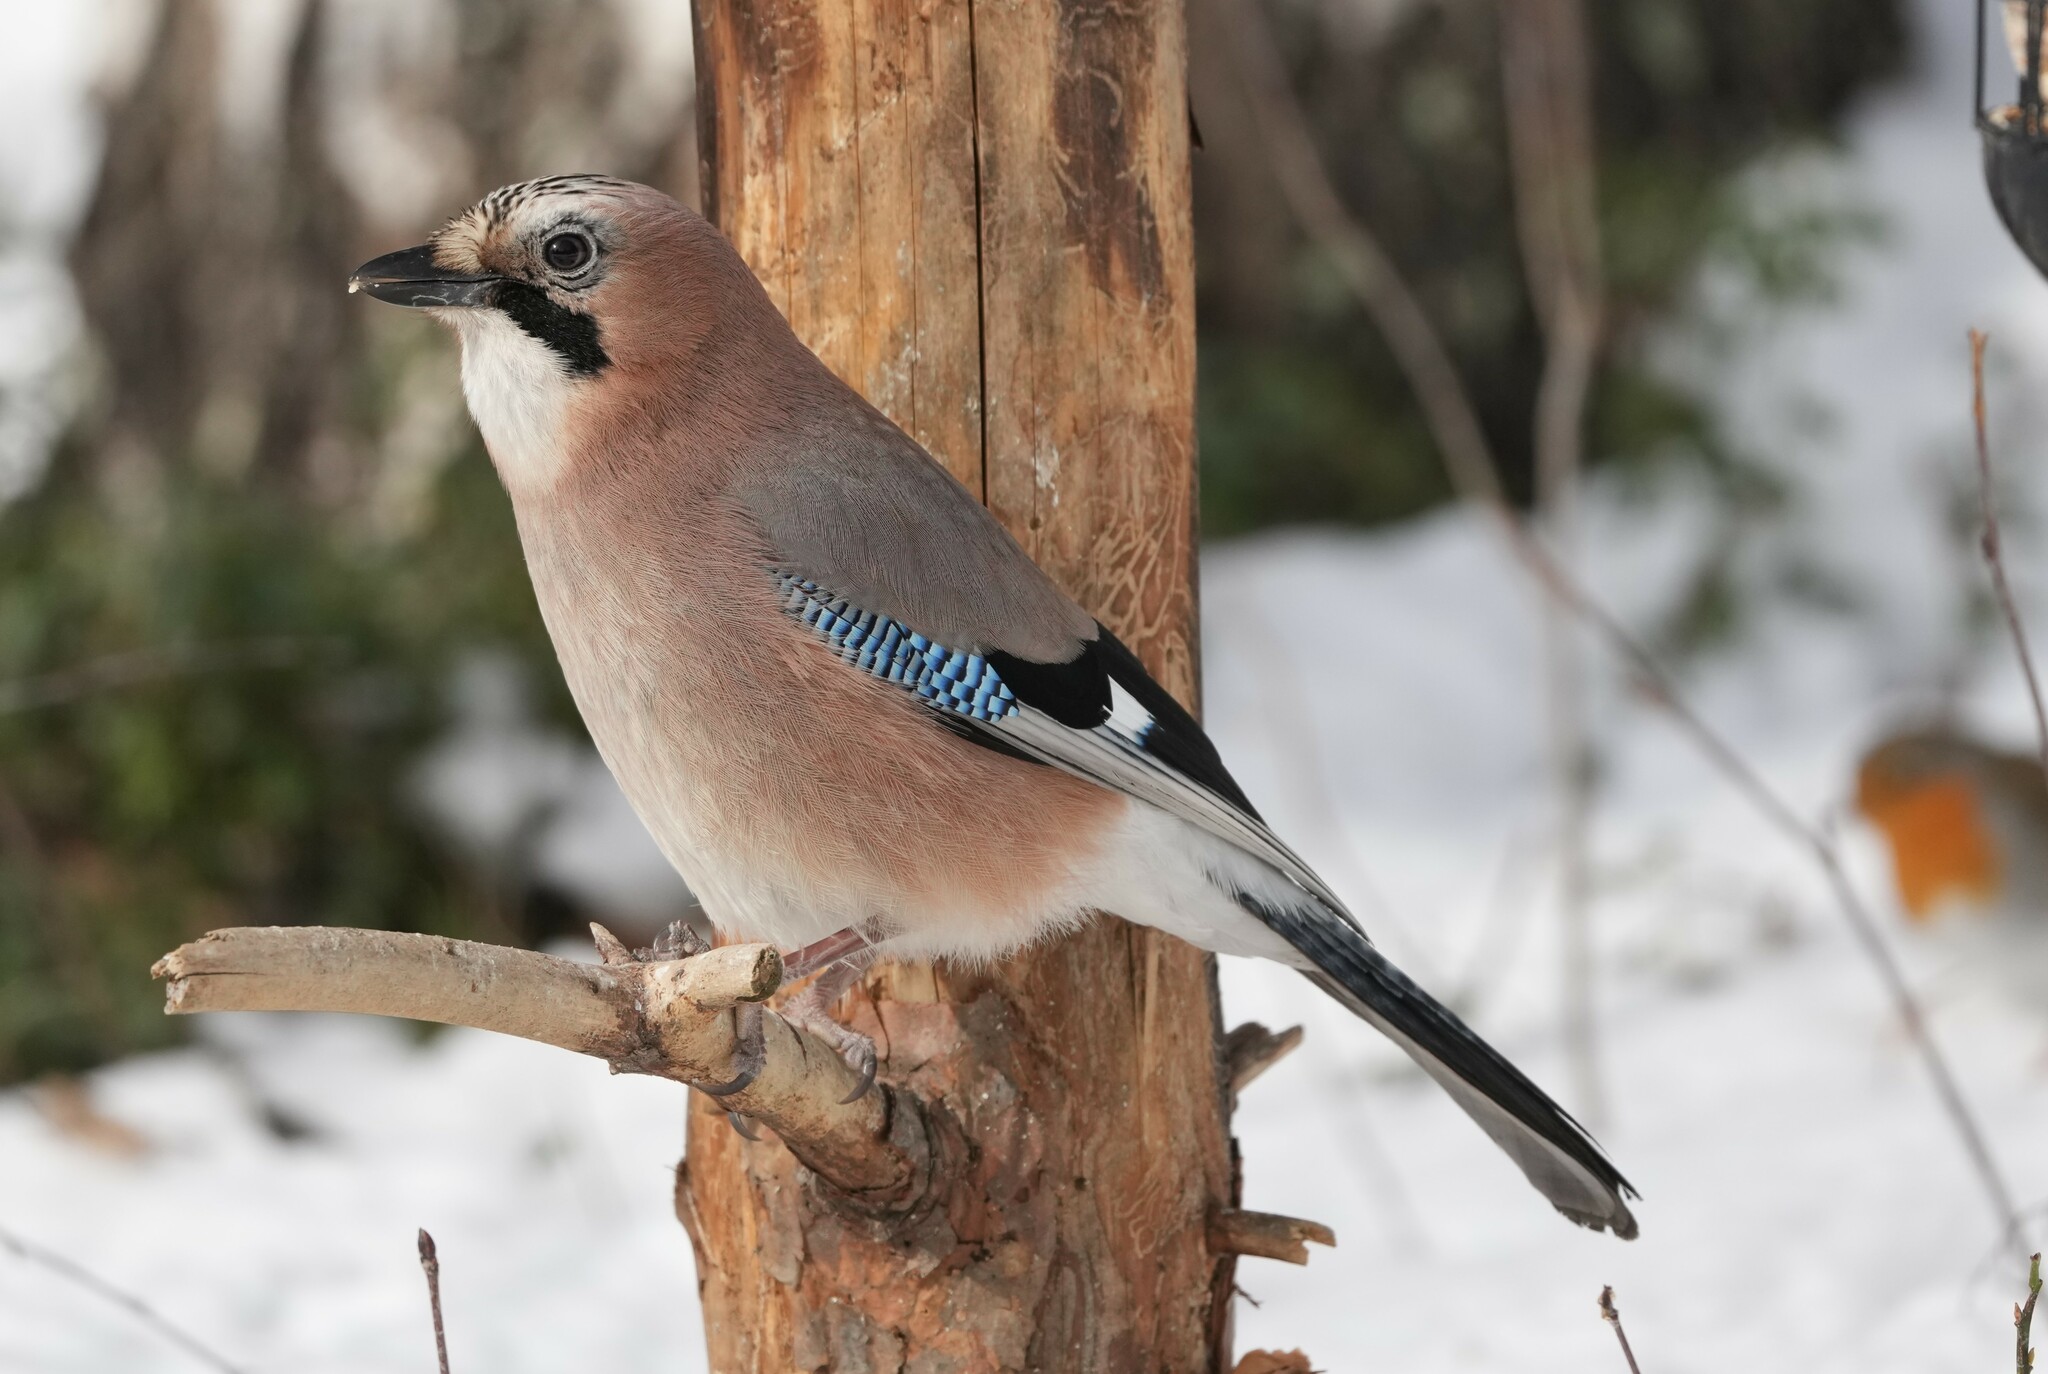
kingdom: Animalia
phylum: Chordata
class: Aves
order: Passeriformes
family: Corvidae
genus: Garrulus
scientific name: Garrulus glandarius
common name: Eurasian jay
